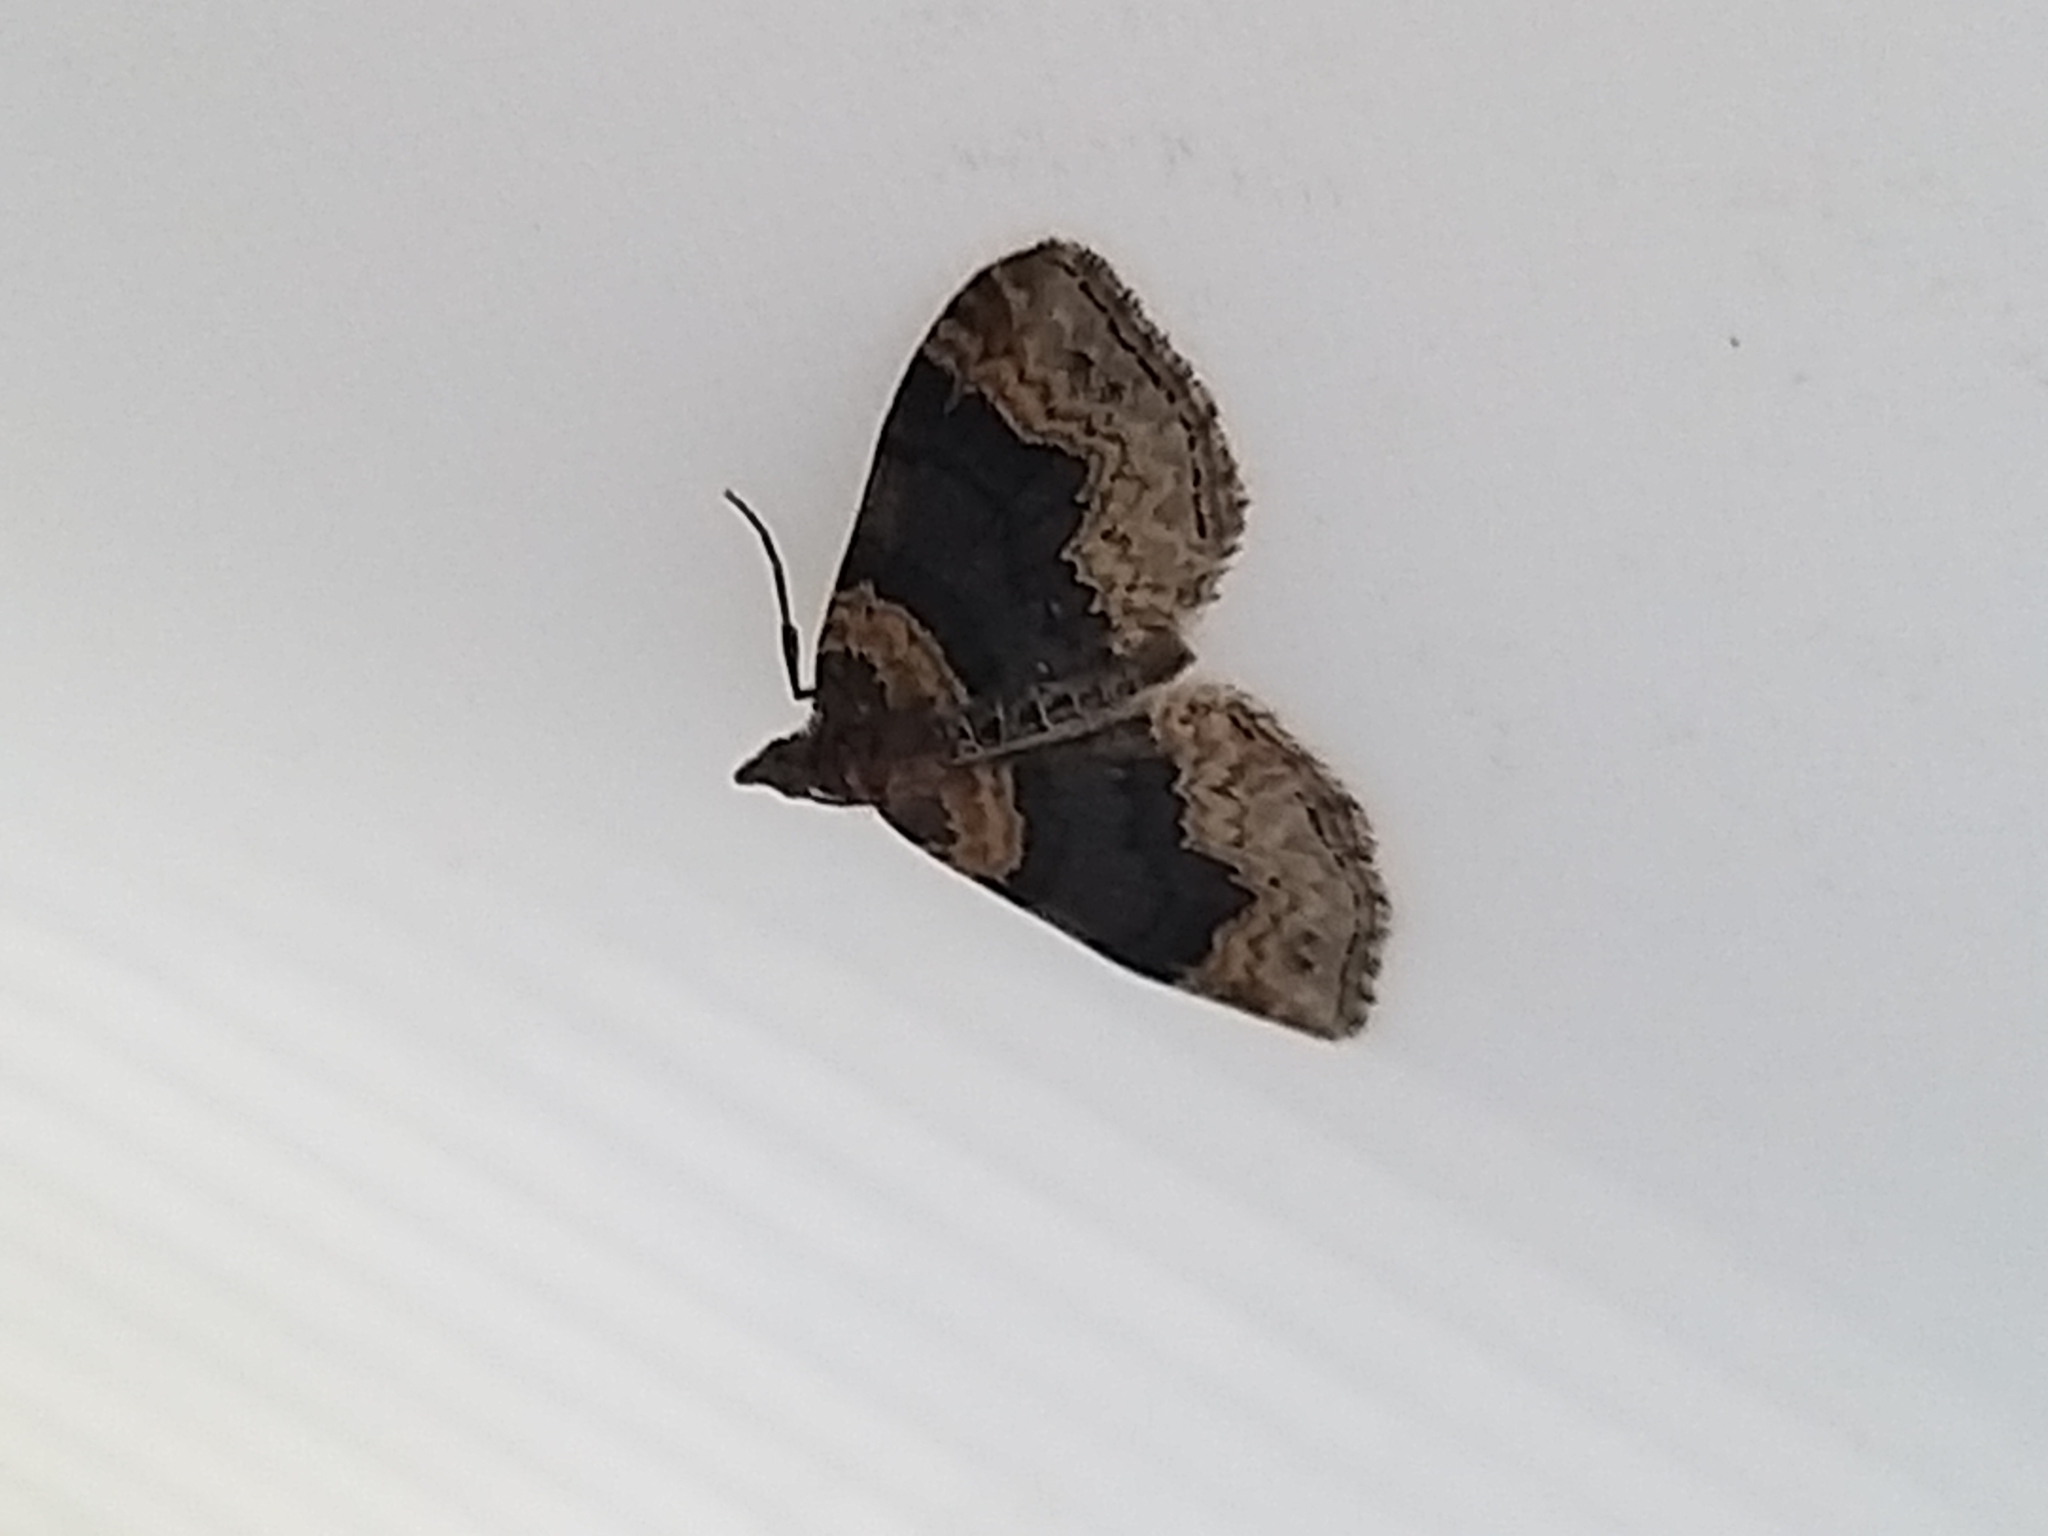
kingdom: Animalia
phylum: Arthropoda
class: Insecta
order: Lepidoptera
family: Geometridae
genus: Xanthorhoe
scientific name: Xanthorhoe ferrugata
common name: Dark-barred twin-spot carpet
